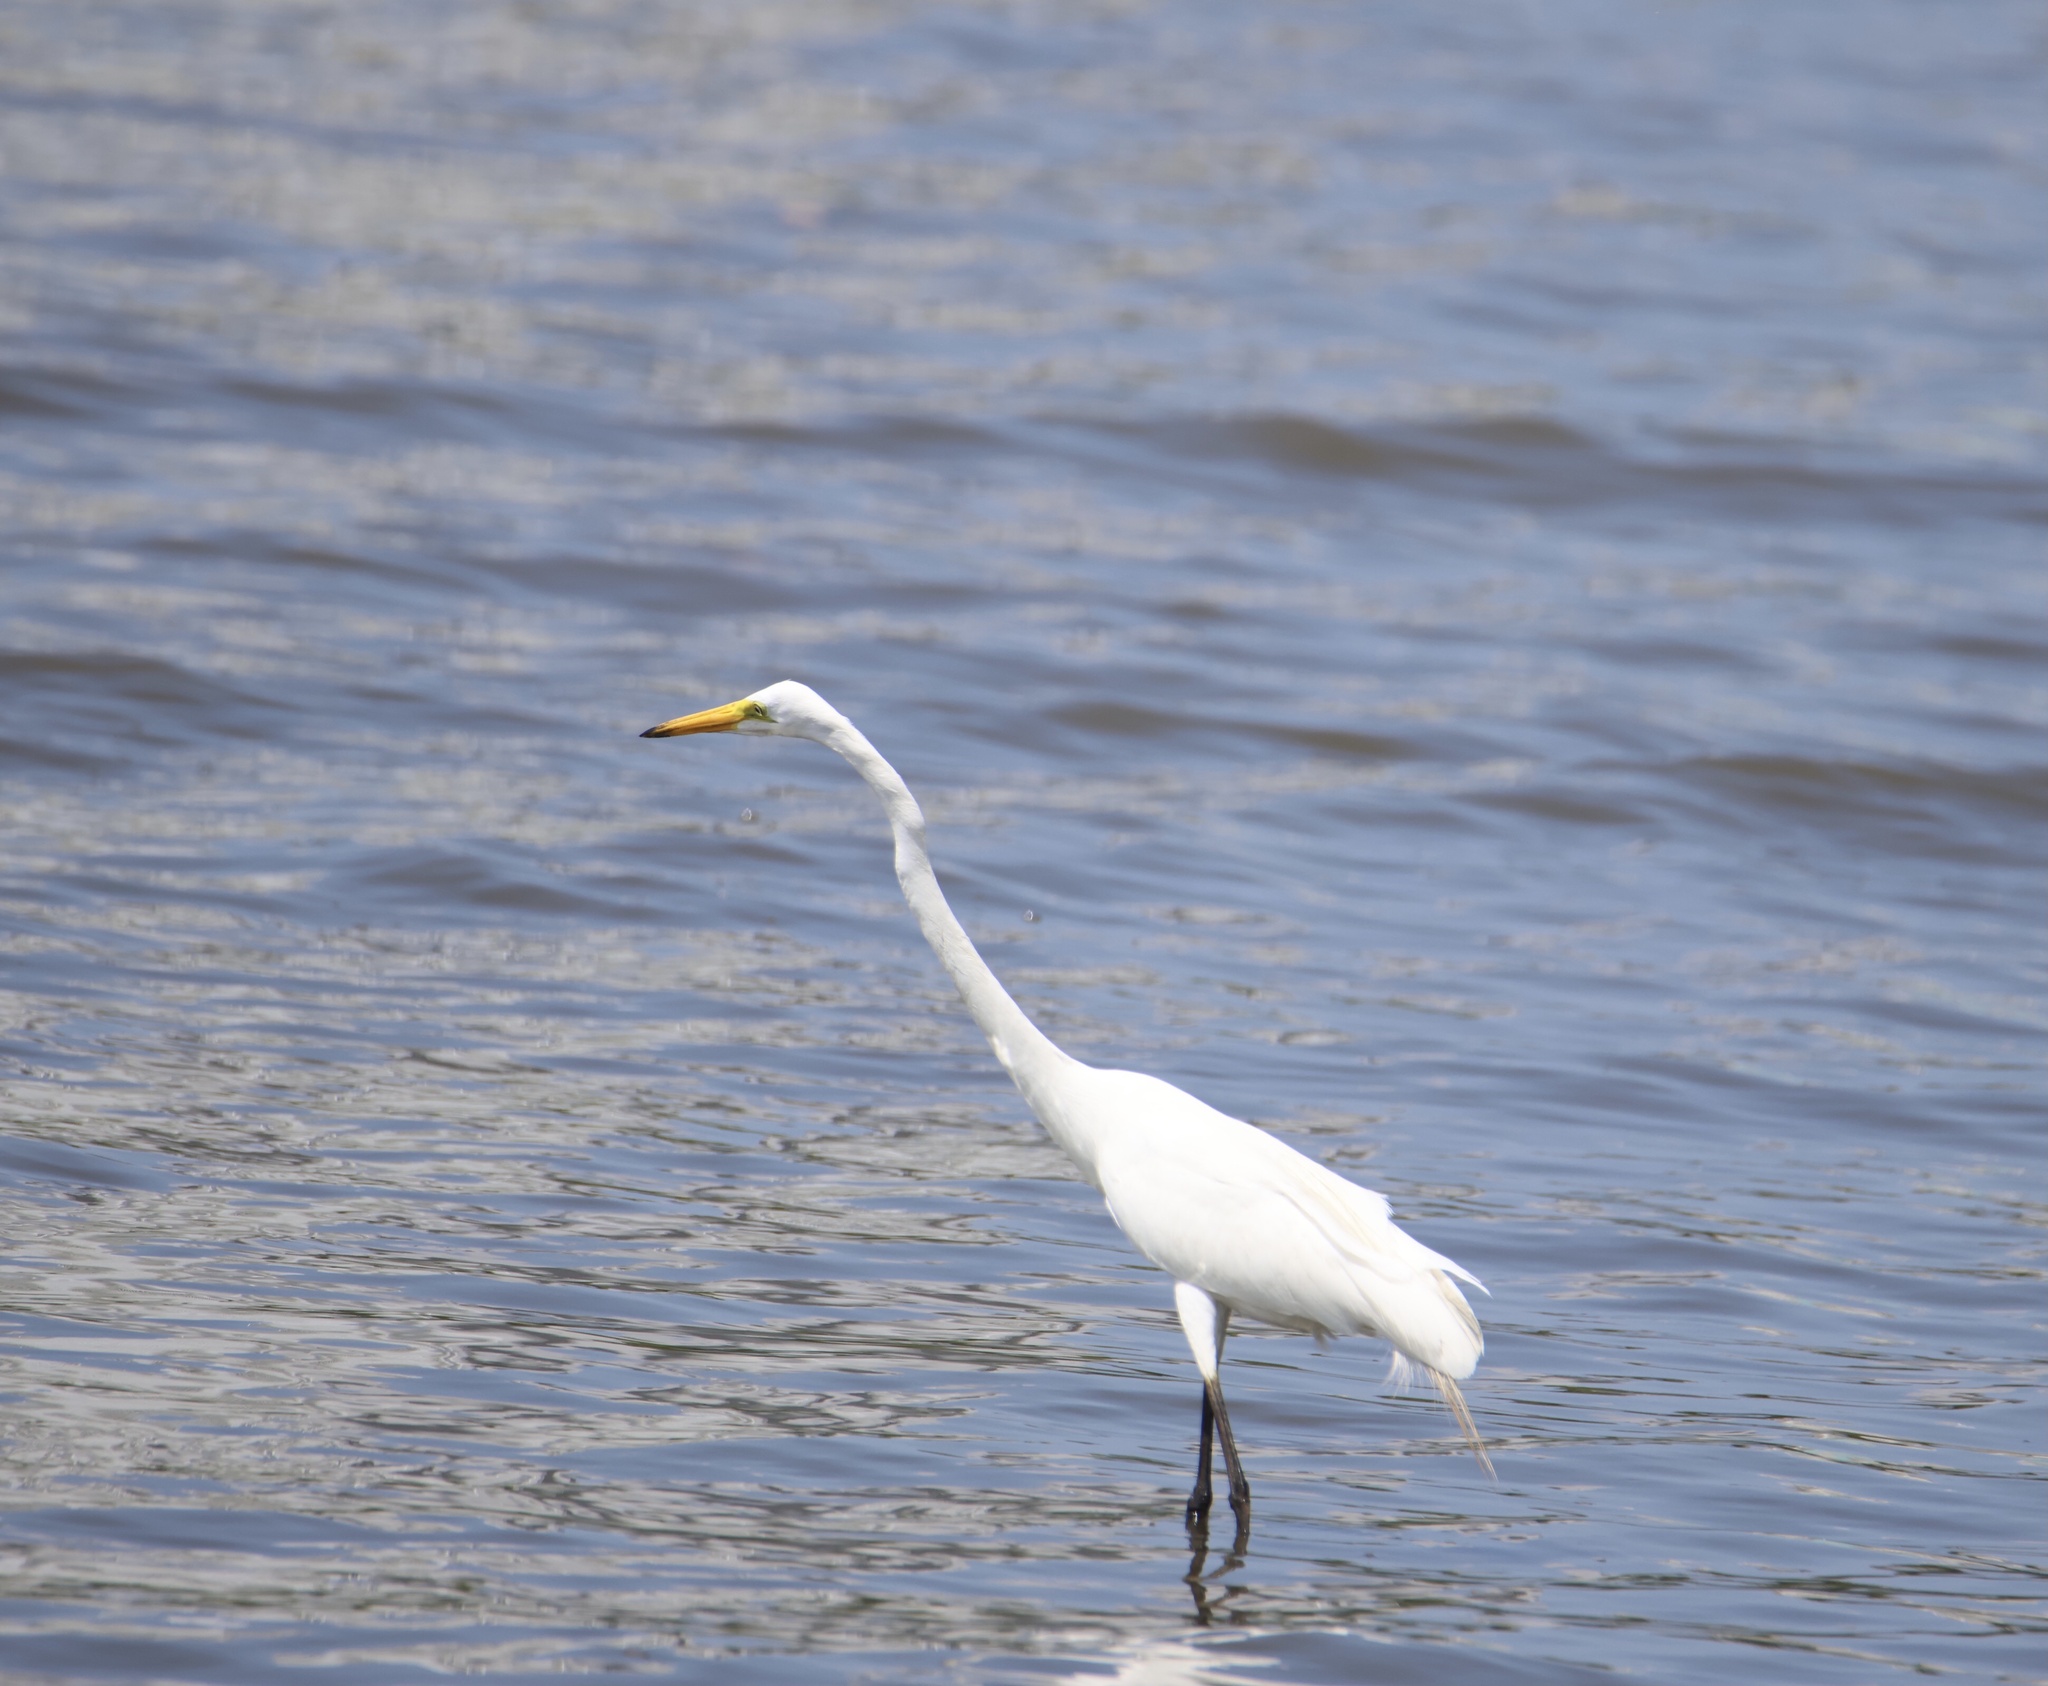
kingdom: Animalia
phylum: Chordata
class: Aves
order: Pelecaniformes
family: Ardeidae
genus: Ardea
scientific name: Ardea alba
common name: Great egret
